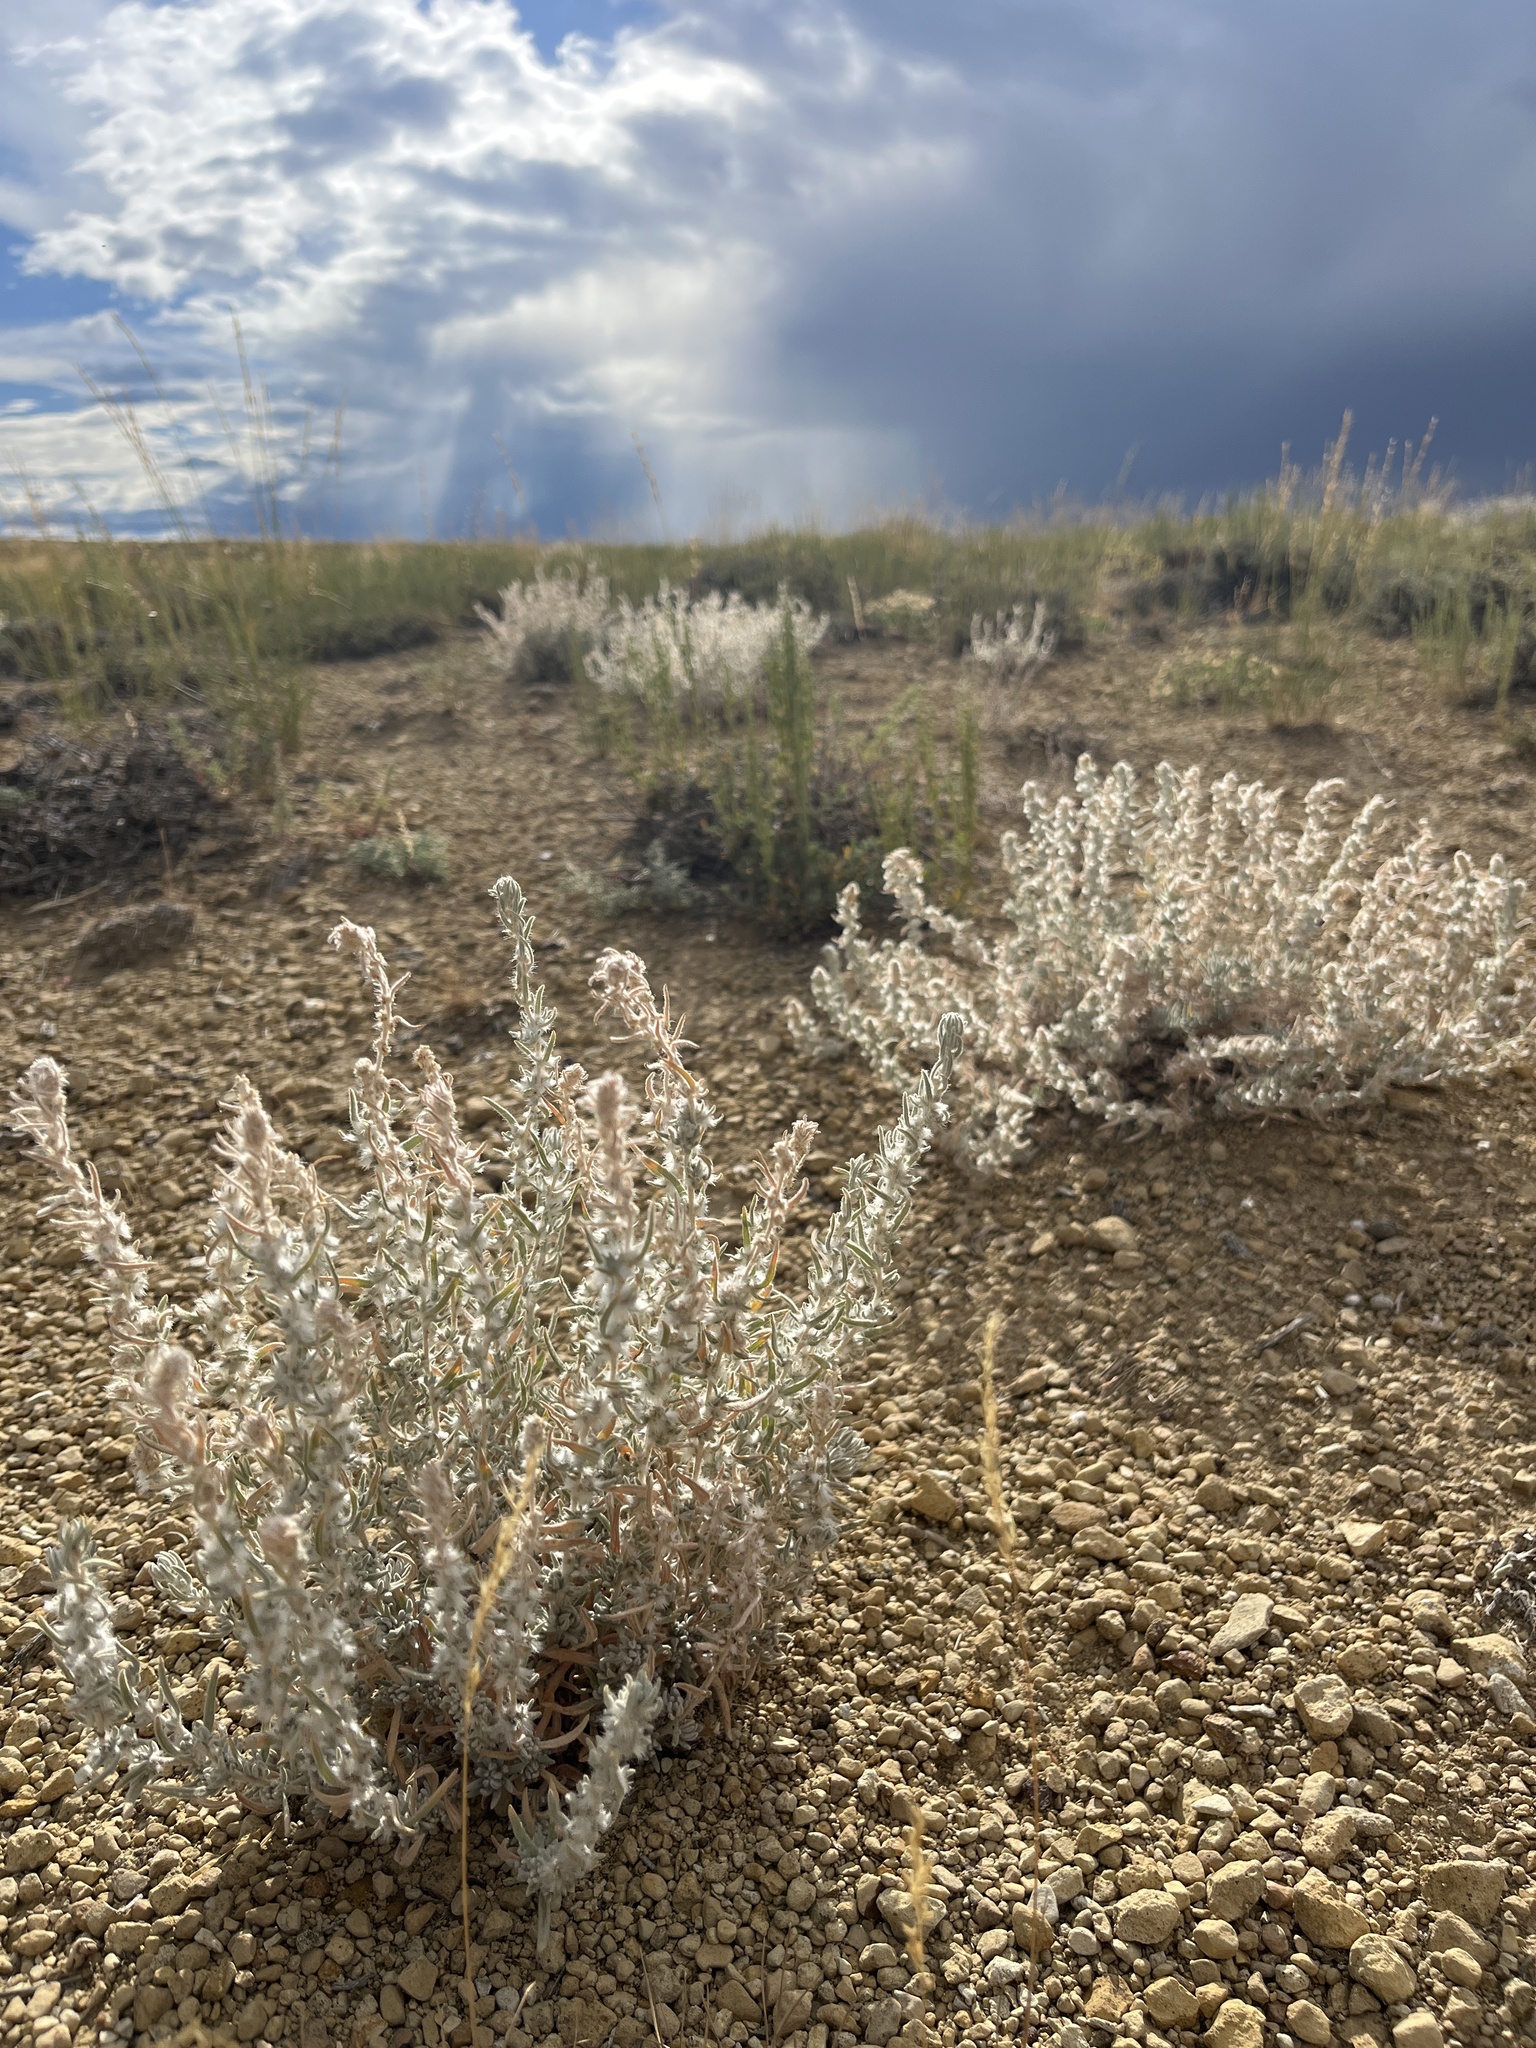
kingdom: Plantae
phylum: Tracheophyta
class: Magnoliopsida
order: Caryophyllales
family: Amaranthaceae
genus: Krascheninnikovia
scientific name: Krascheninnikovia lanata
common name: Winterfat
